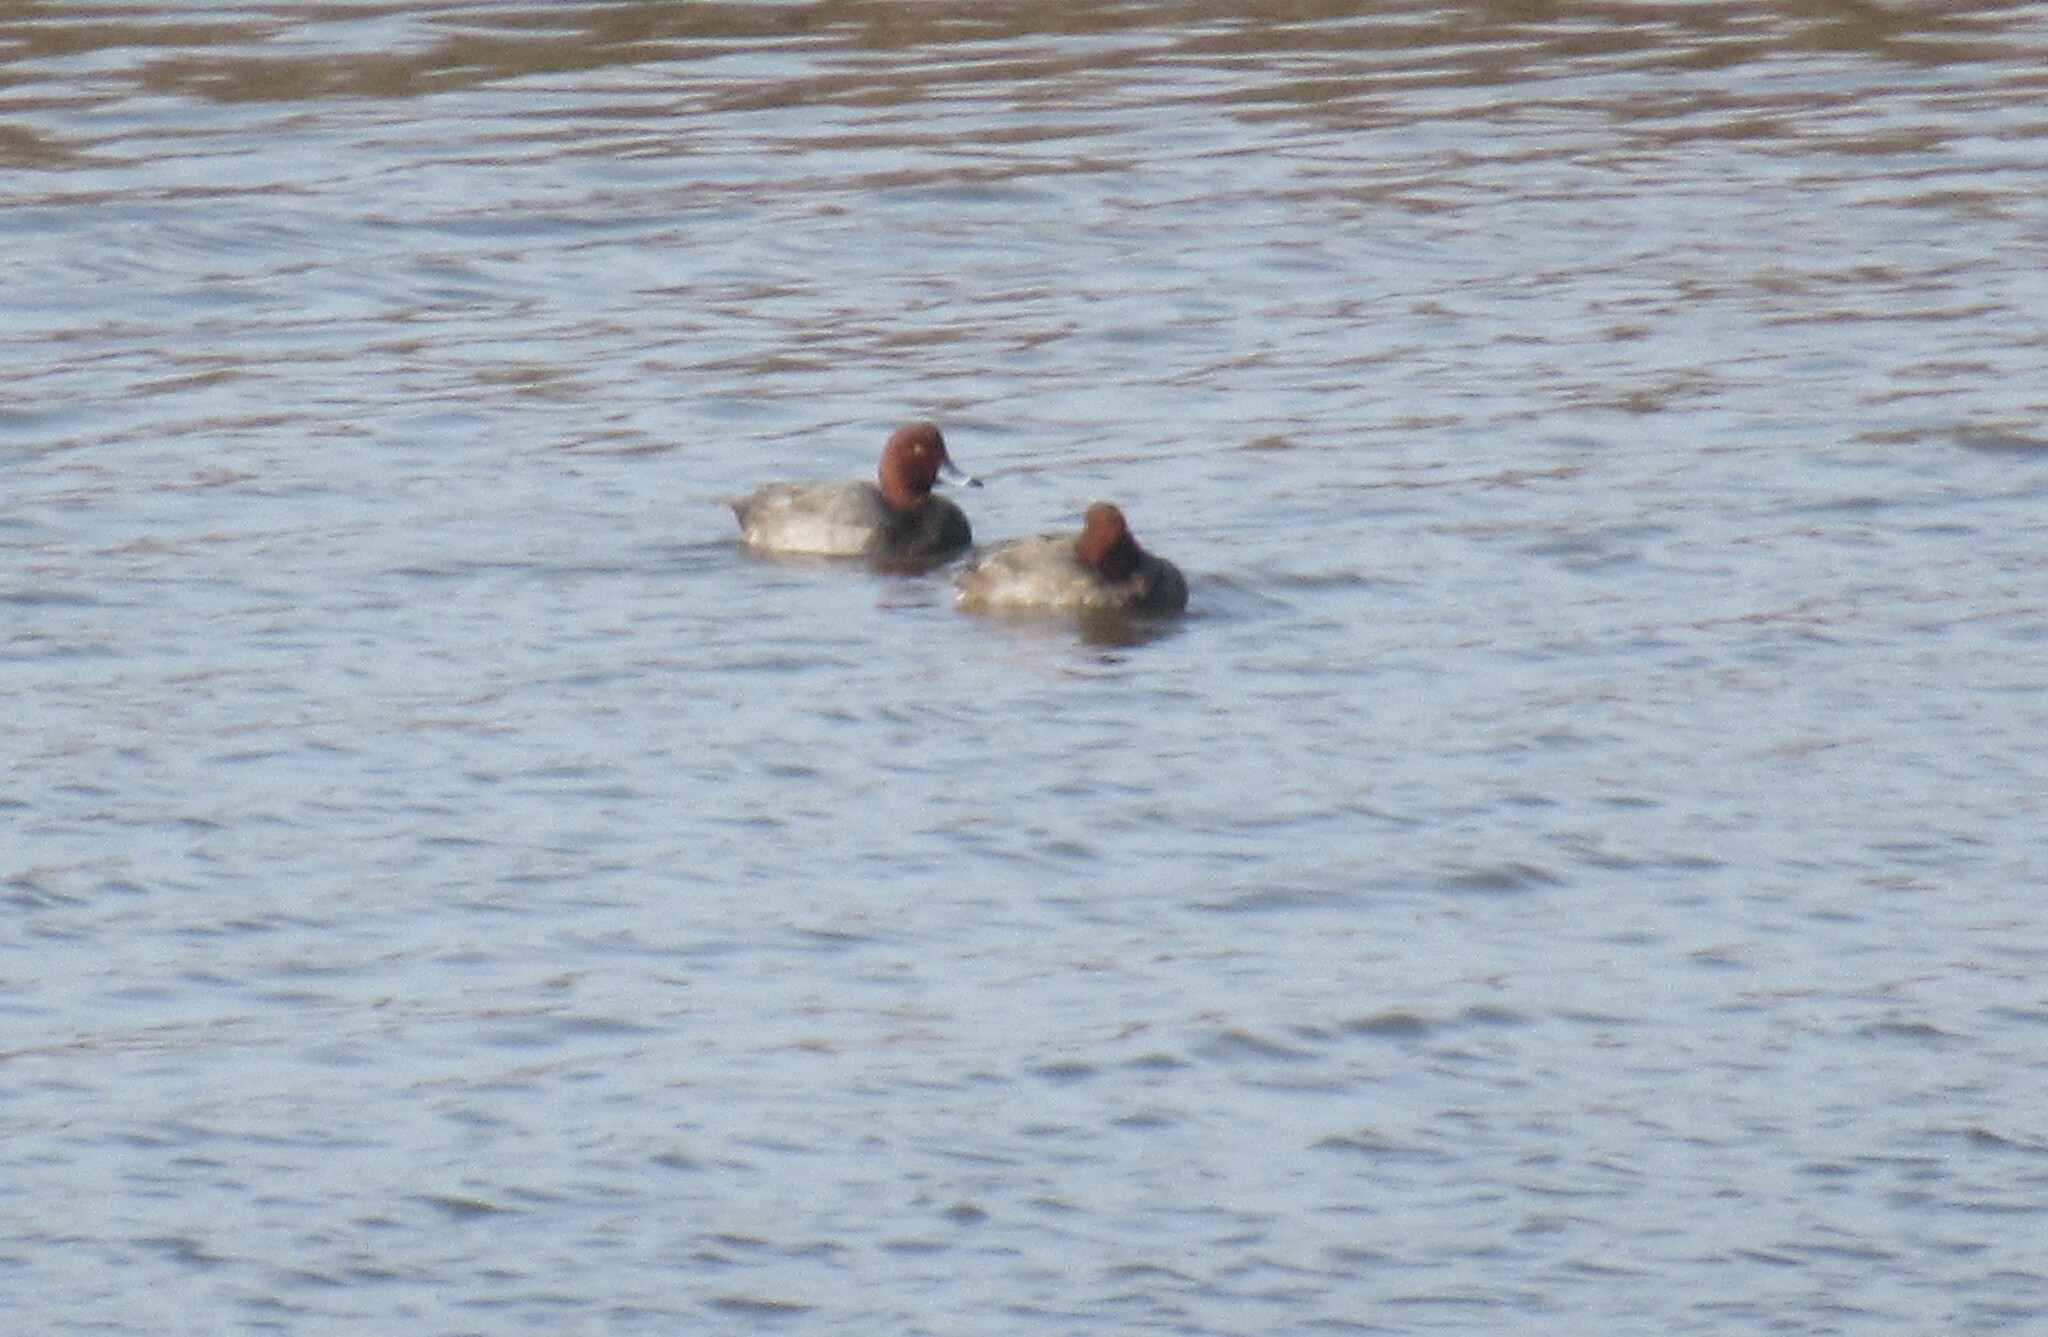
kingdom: Animalia
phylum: Chordata
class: Aves
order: Anseriformes
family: Anatidae
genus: Aythya
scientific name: Aythya americana
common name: Redhead
